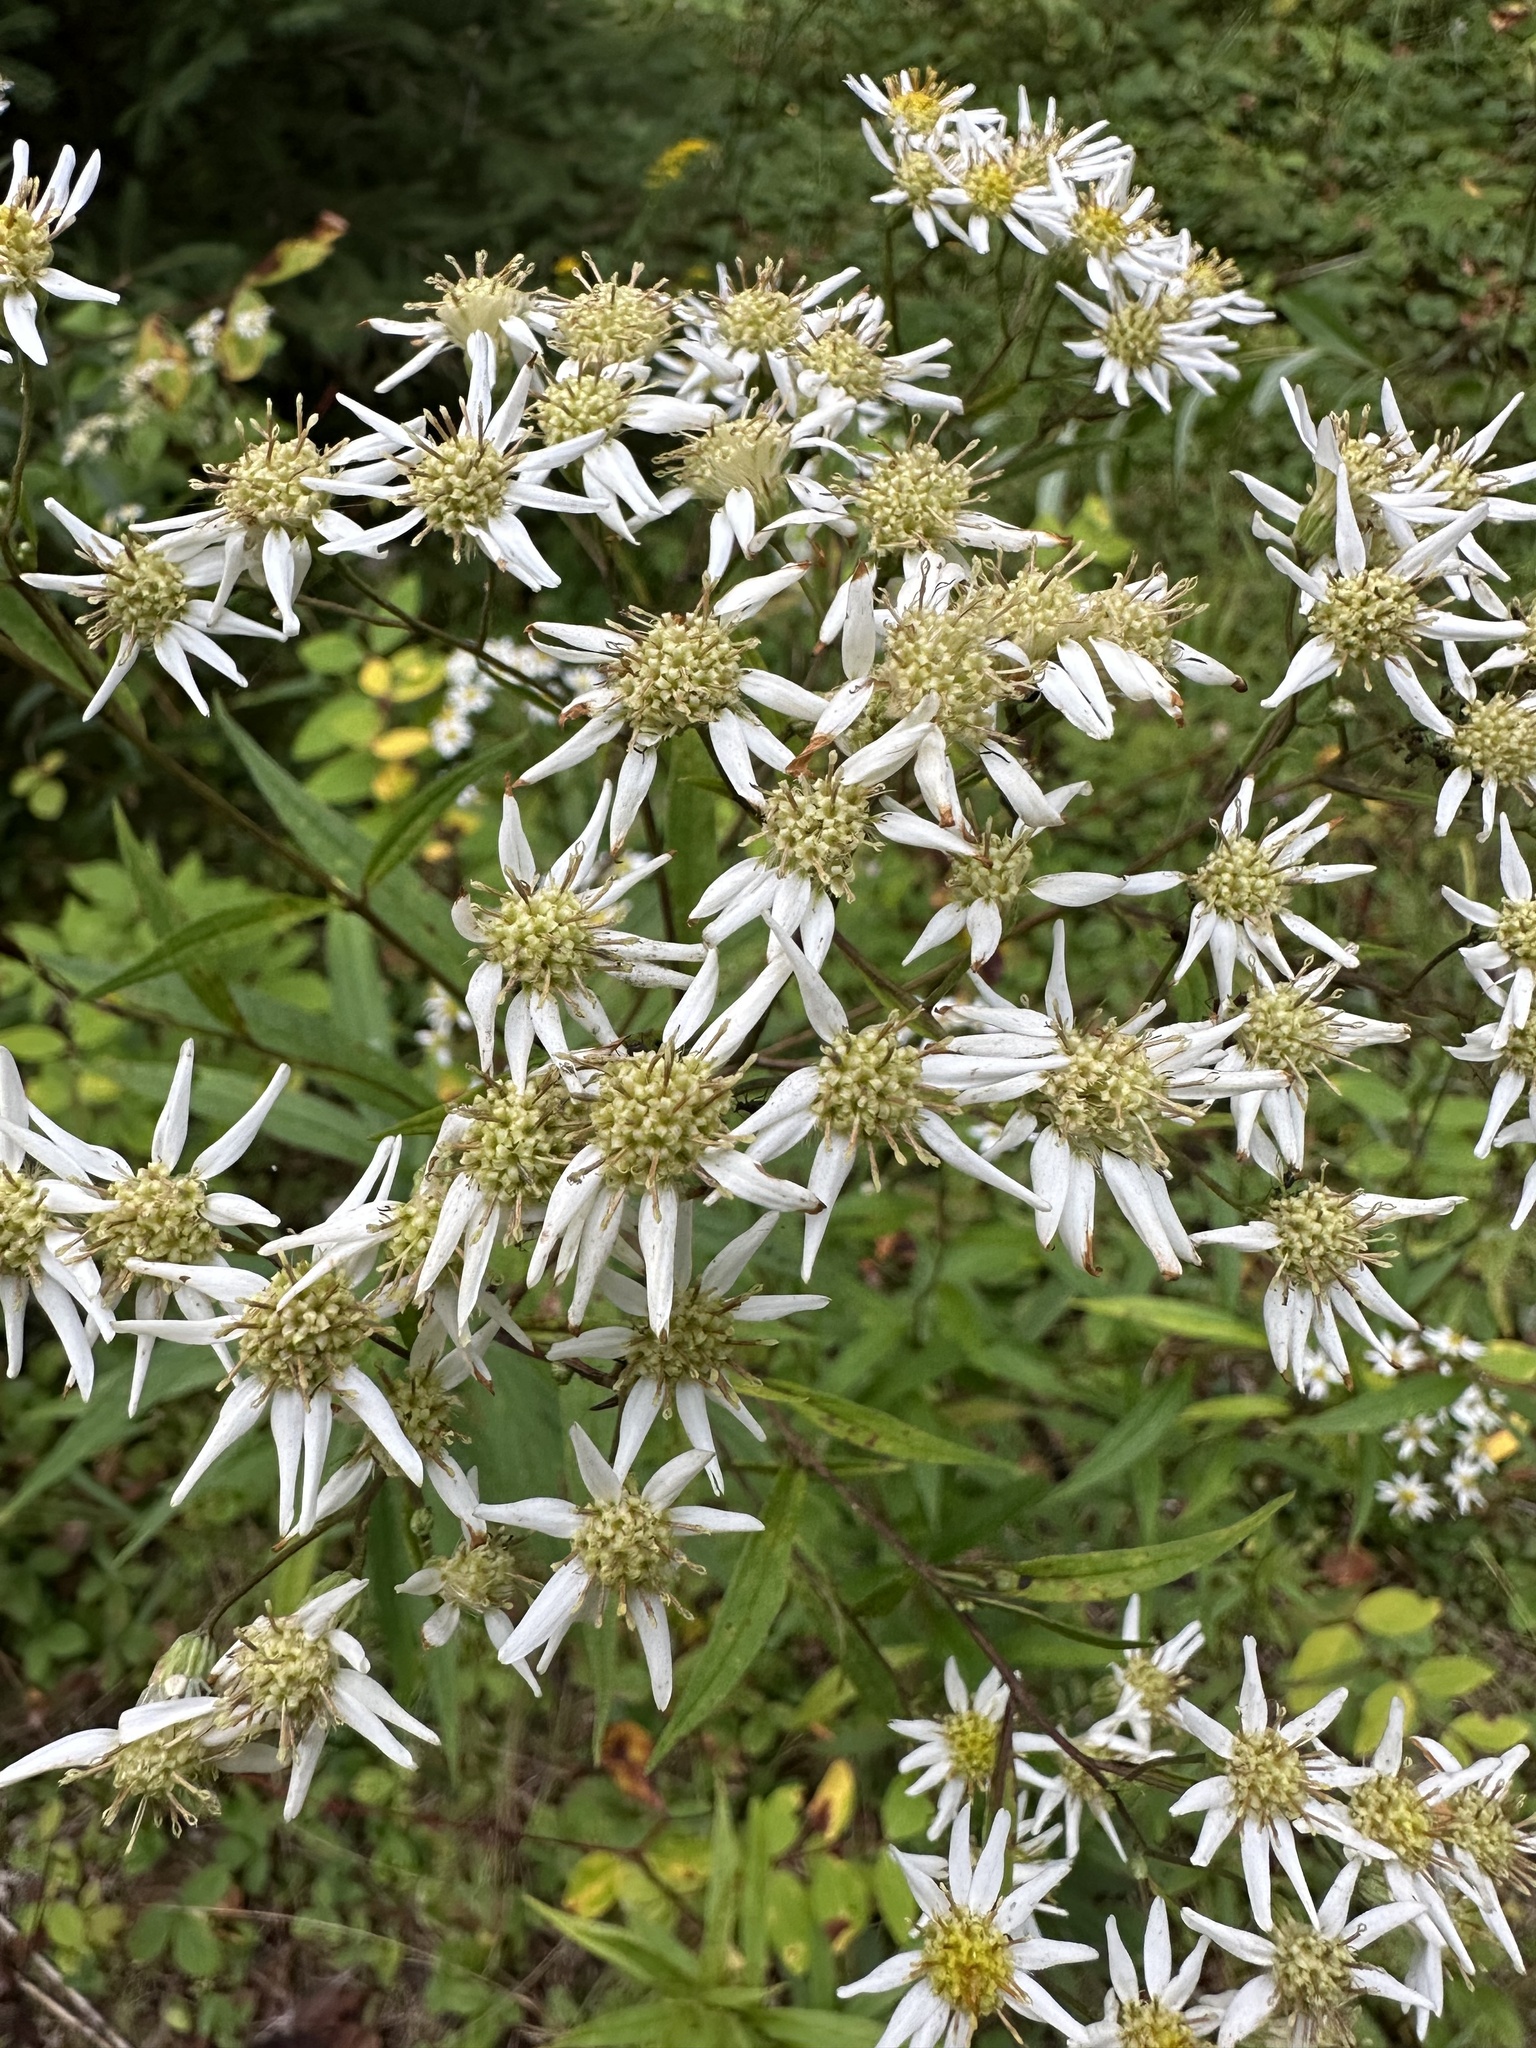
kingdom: Plantae
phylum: Tracheophyta
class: Magnoliopsida
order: Asterales
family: Asteraceae
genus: Doellingeria
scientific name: Doellingeria umbellata
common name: Flat-top white aster
